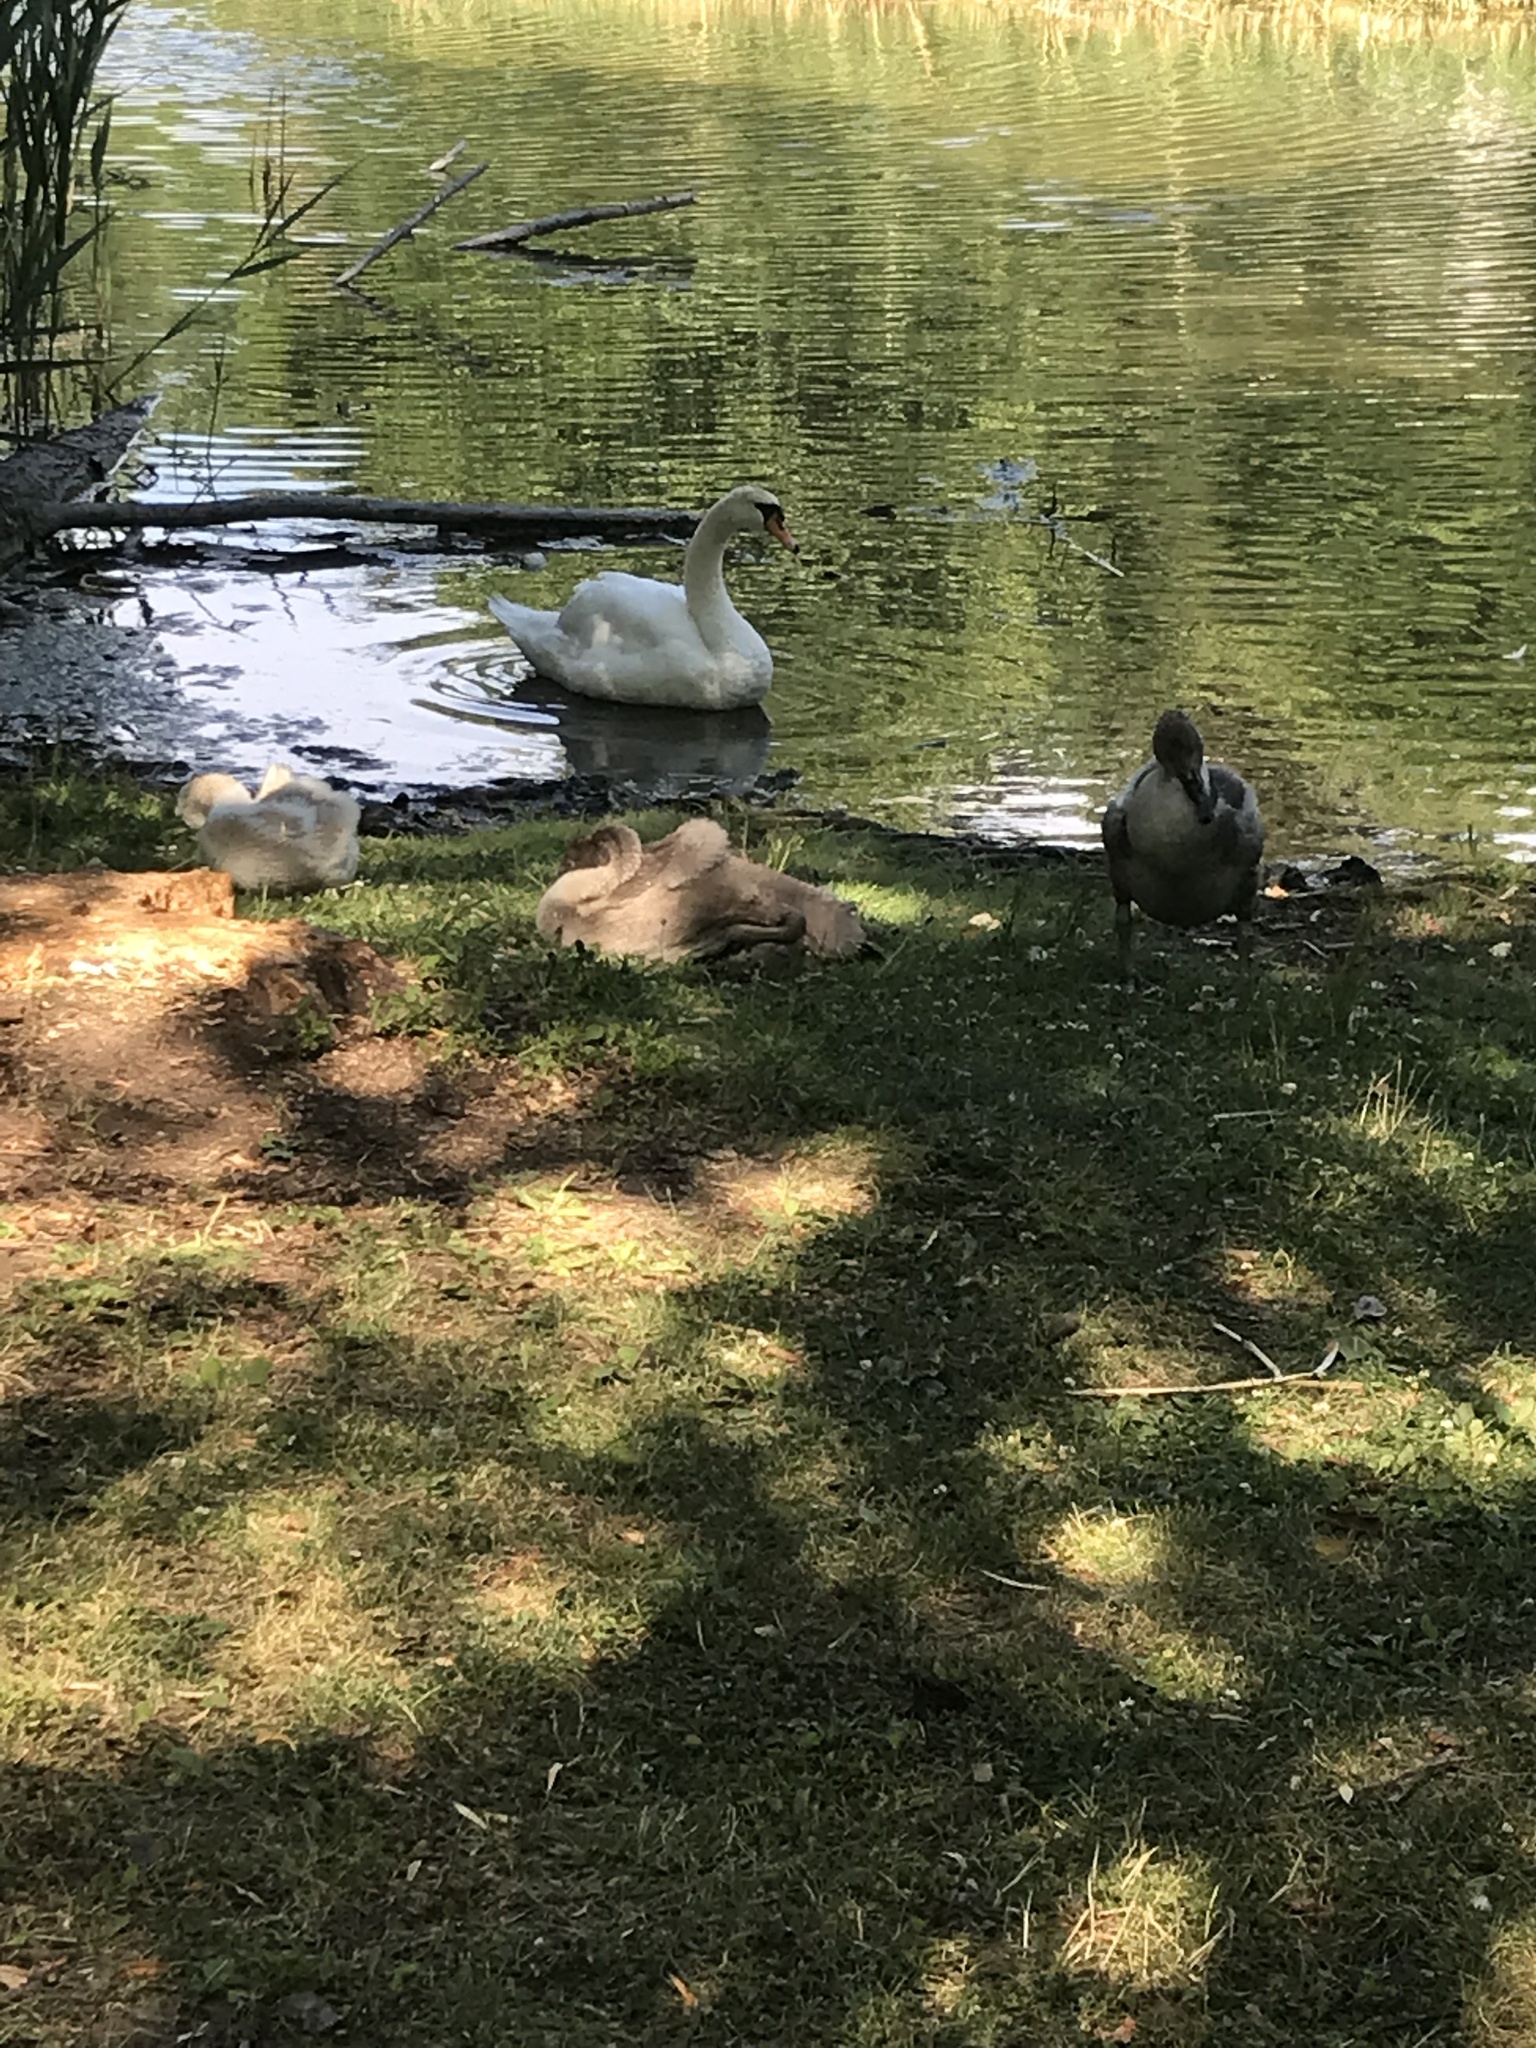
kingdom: Animalia
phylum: Chordata
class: Aves
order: Anseriformes
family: Anatidae
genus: Cygnus
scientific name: Cygnus olor
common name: Mute swan
